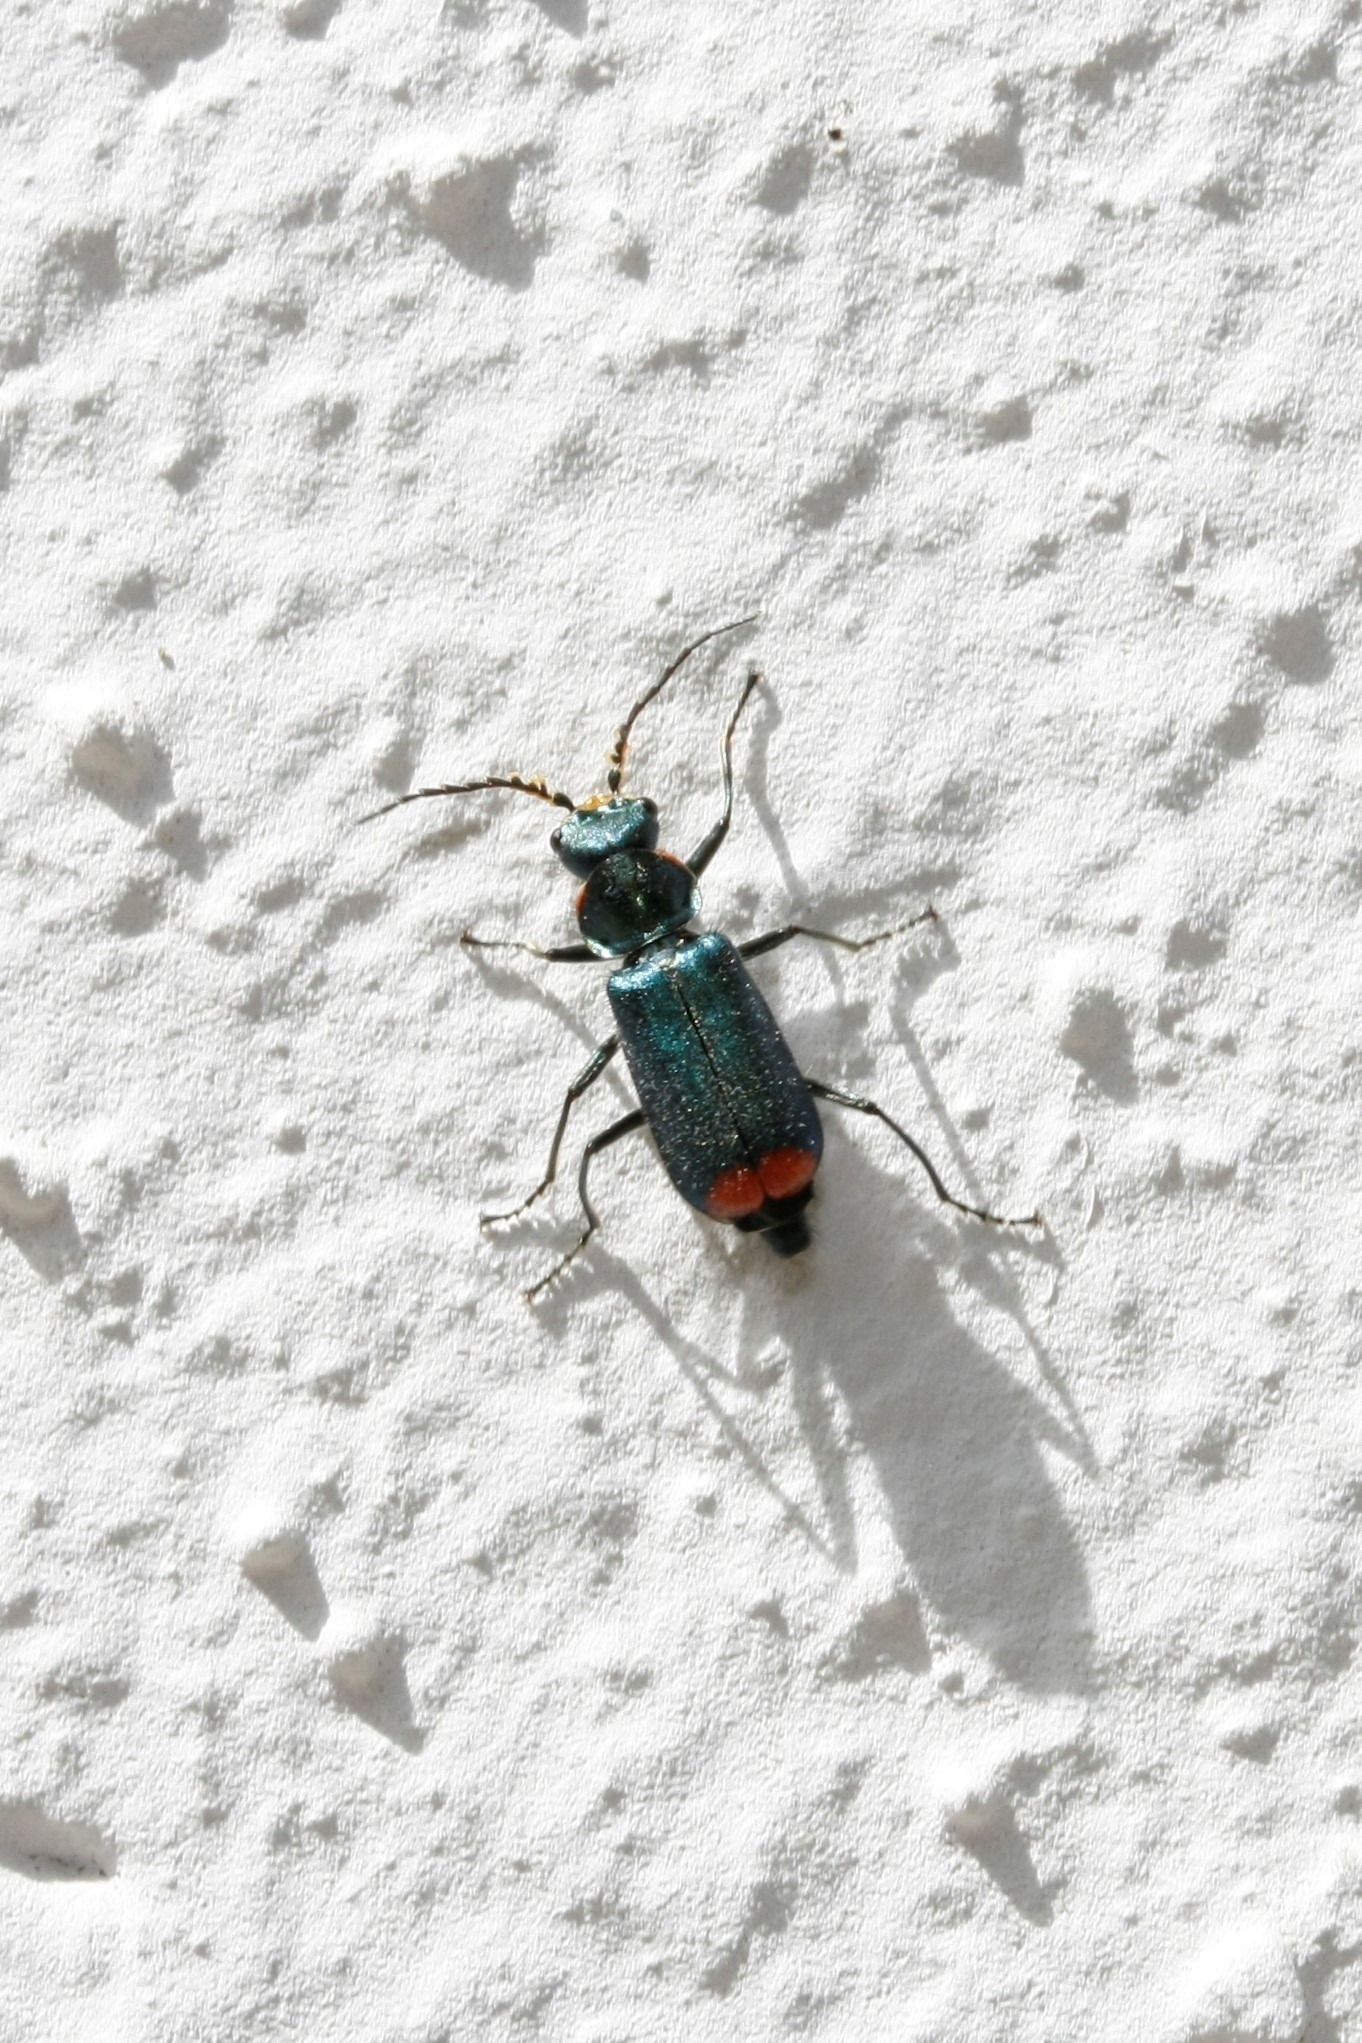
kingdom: Animalia
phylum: Arthropoda
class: Insecta
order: Coleoptera
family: Melyridae
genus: Malachius
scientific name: Malachius bipustulatus
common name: Malachite beetle
